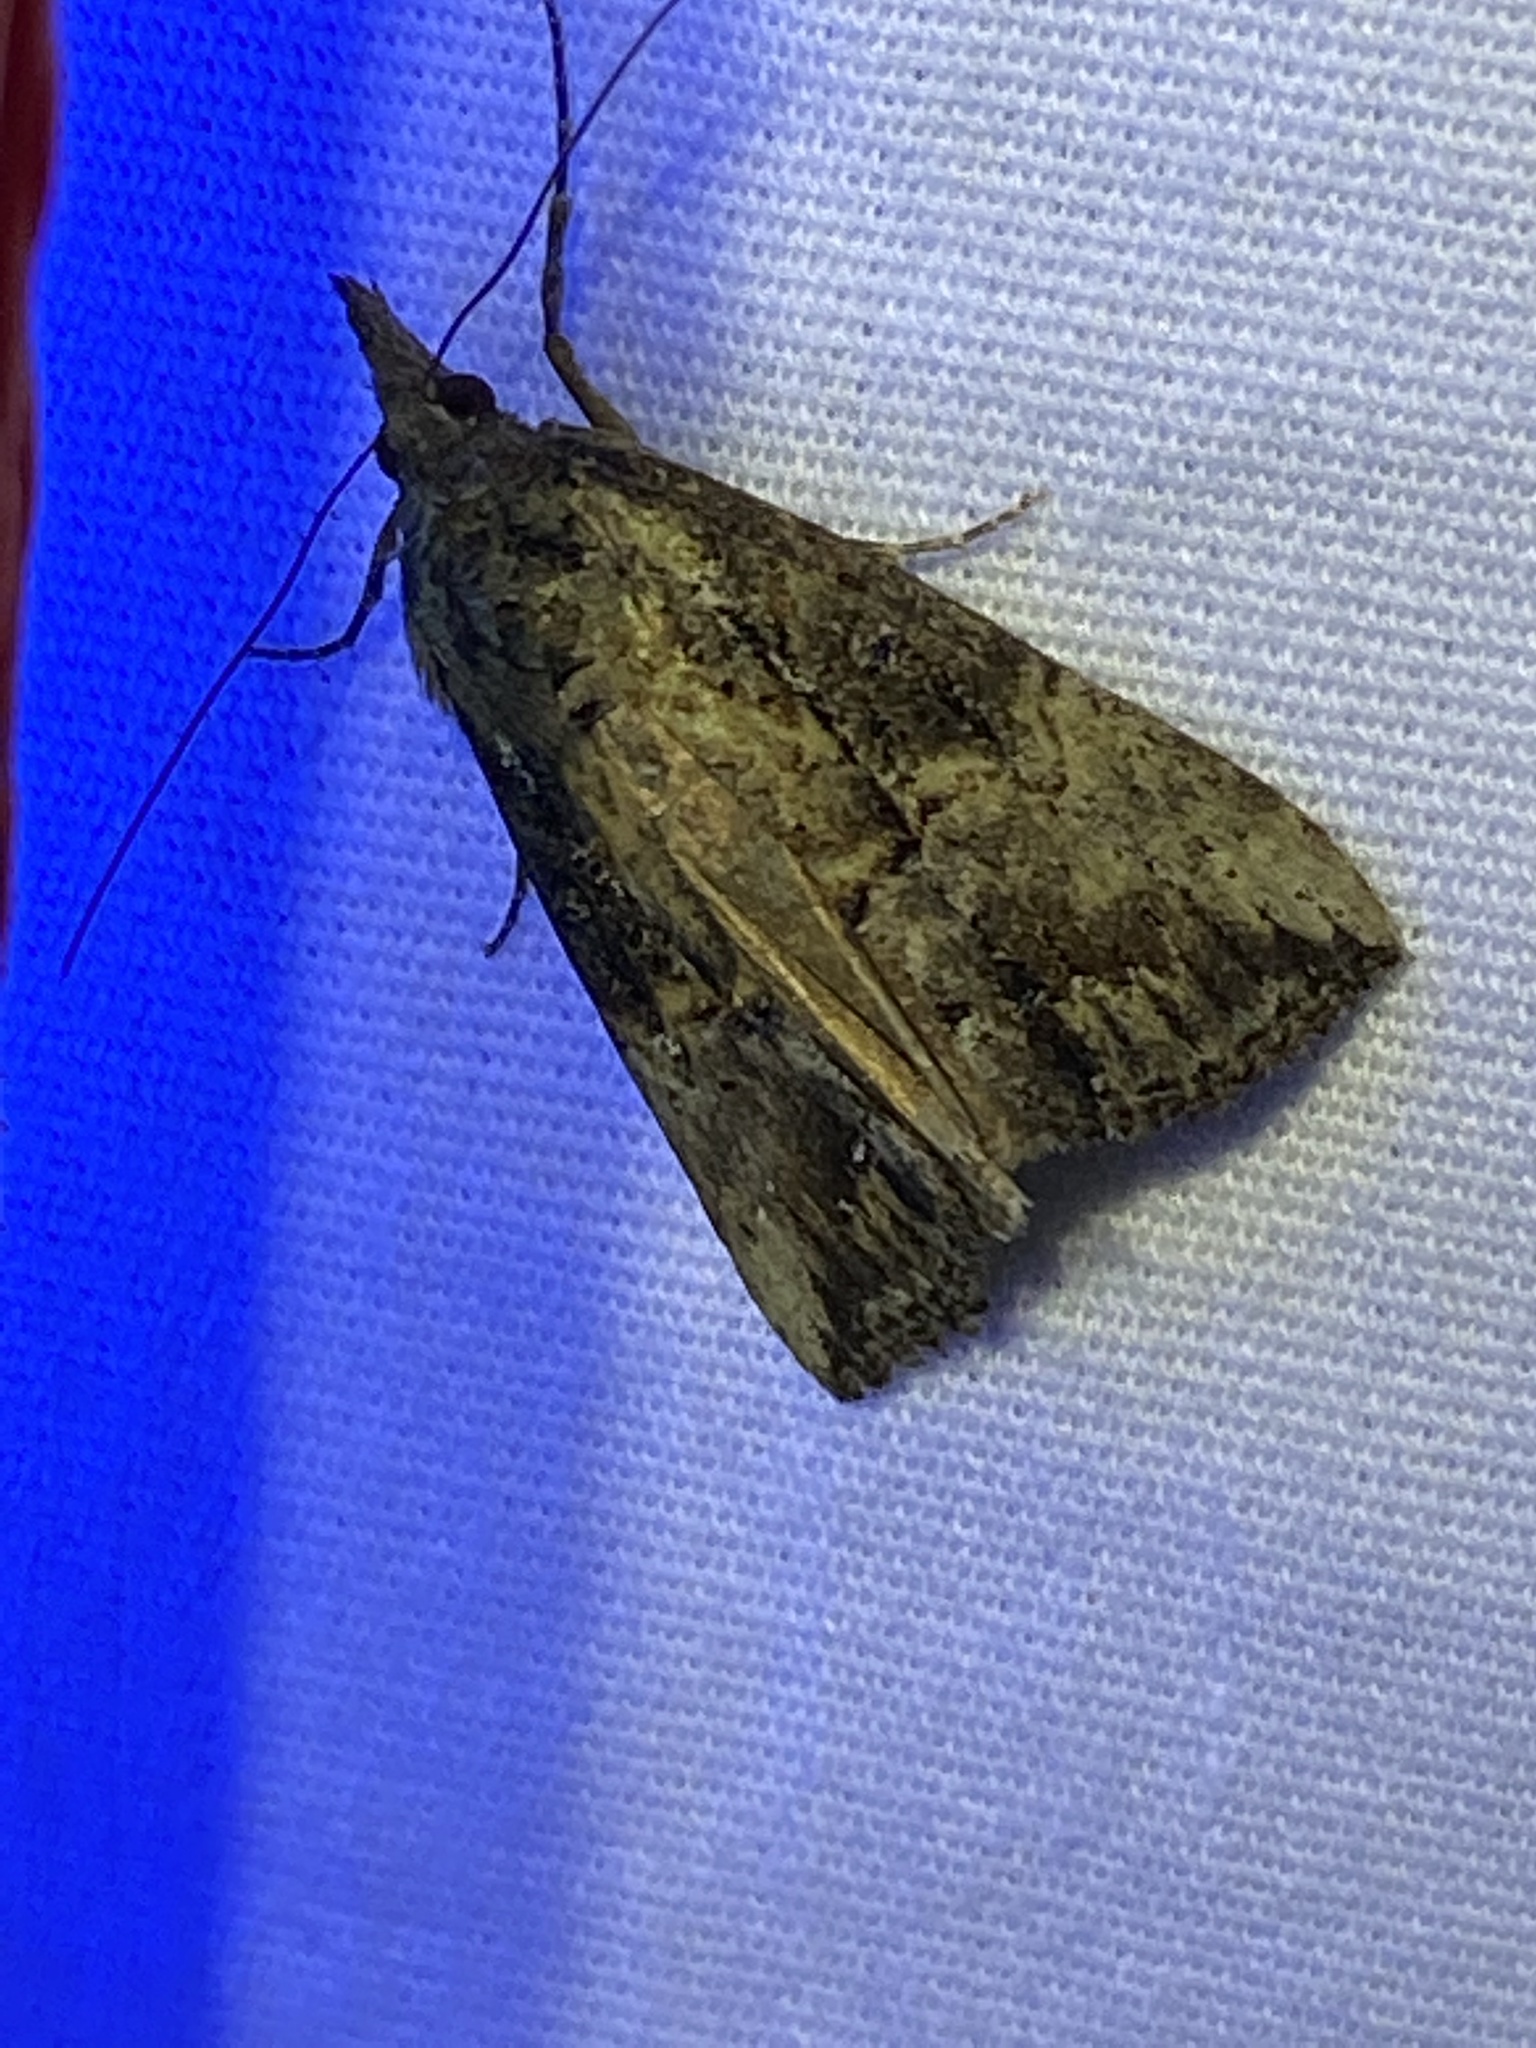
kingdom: Animalia
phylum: Arthropoda
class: Insecta
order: Lepidoptera
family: Erebidae
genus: Hypena
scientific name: Hypena scabra
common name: Green cloverworm
